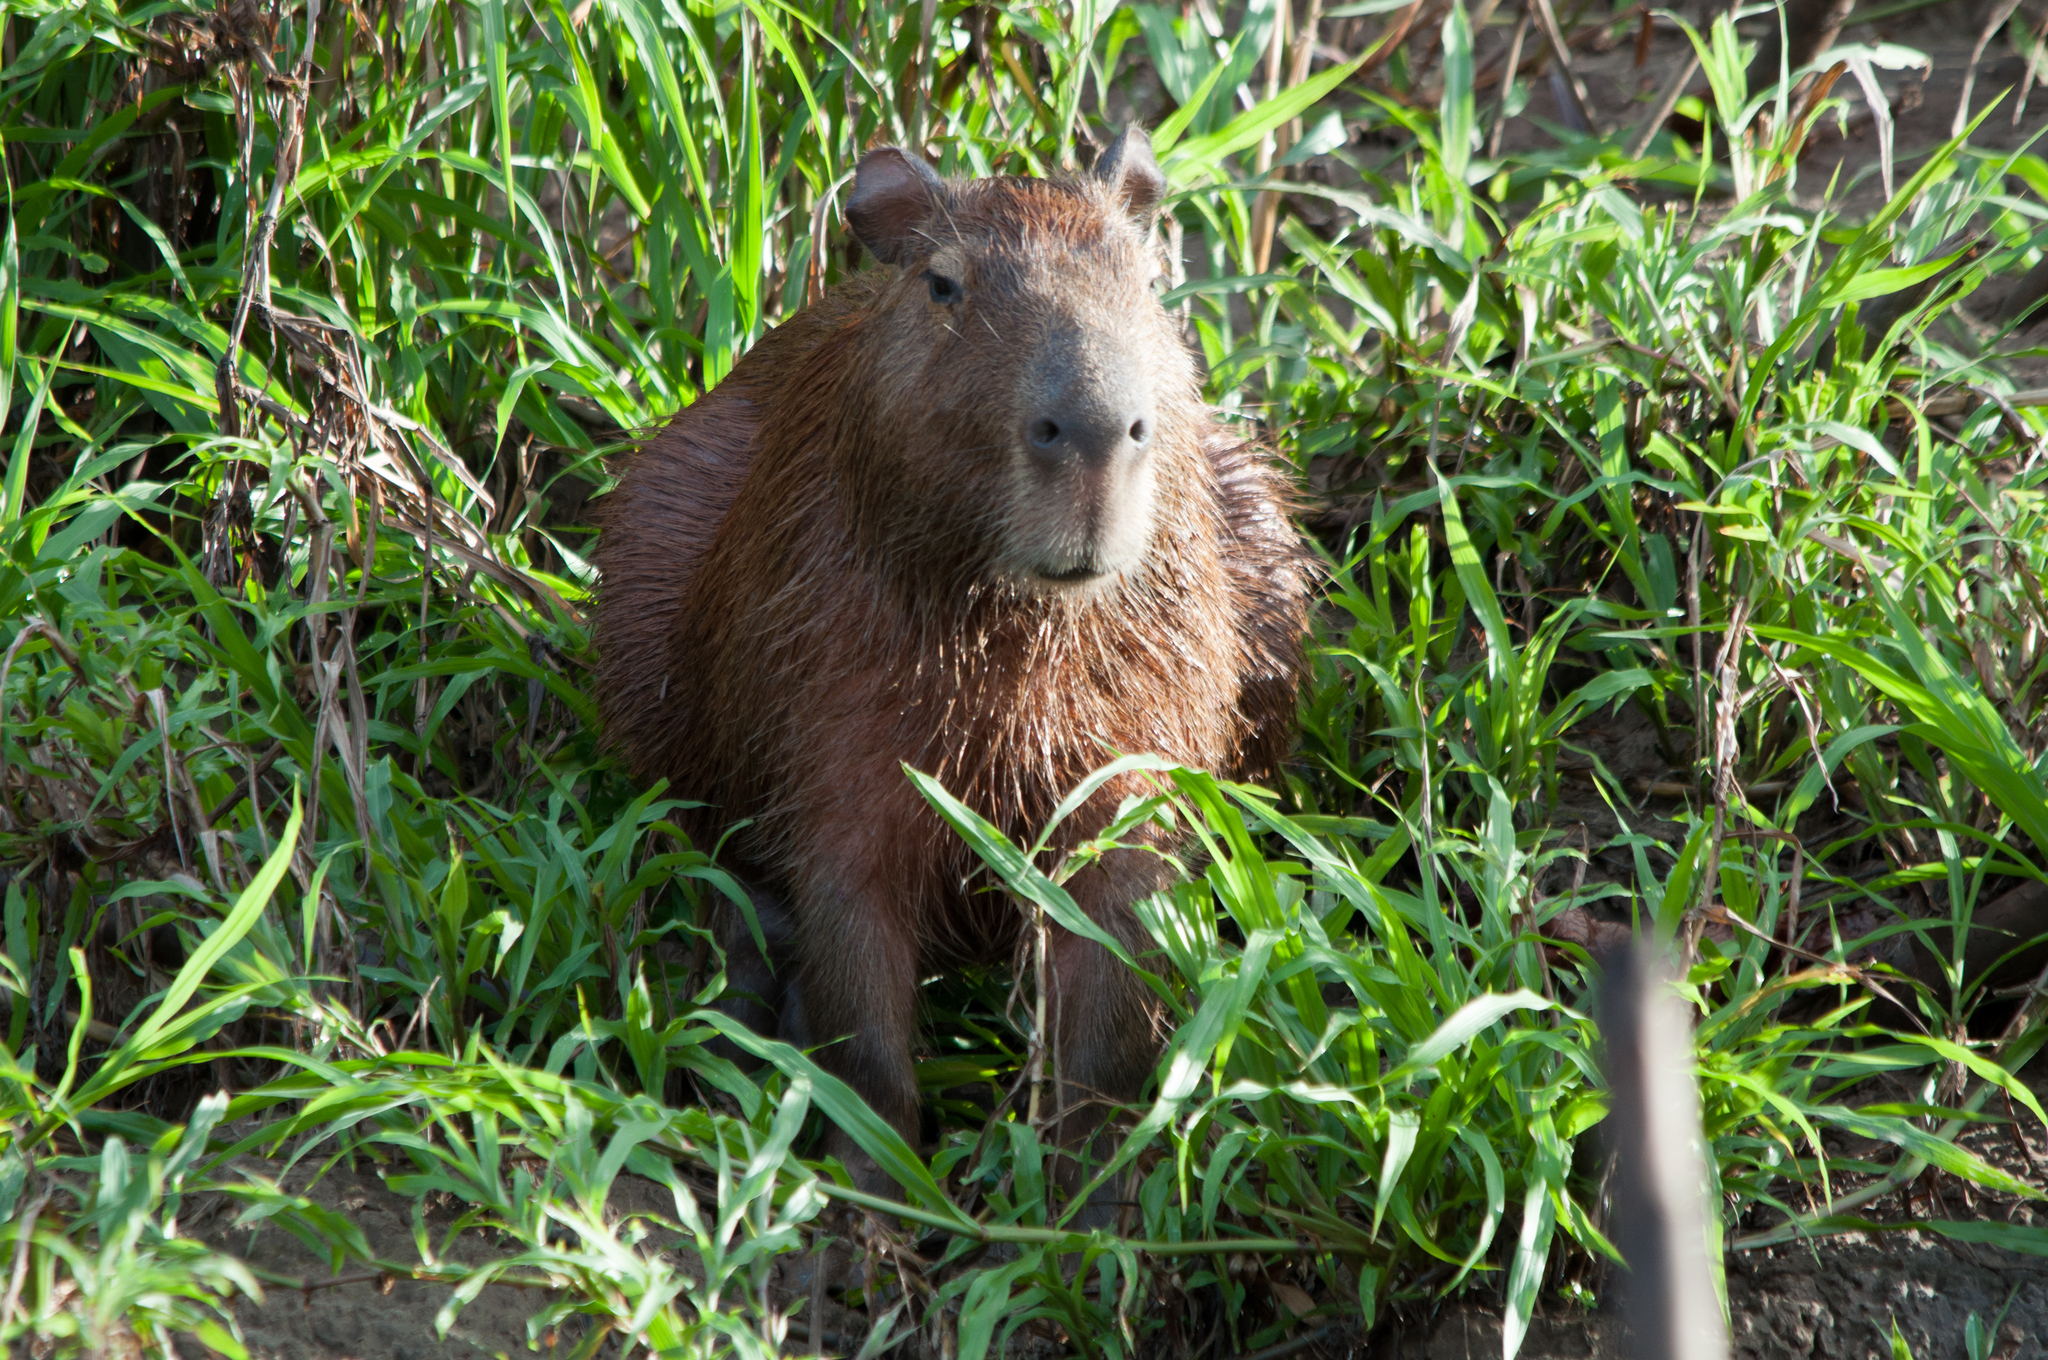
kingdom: Animalia
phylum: Chordata
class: Mammalia
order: Rodentia
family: Caviidae
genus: Hydrochoerus
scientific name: Hydrochoerus hydrochaeris
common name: Capybara
